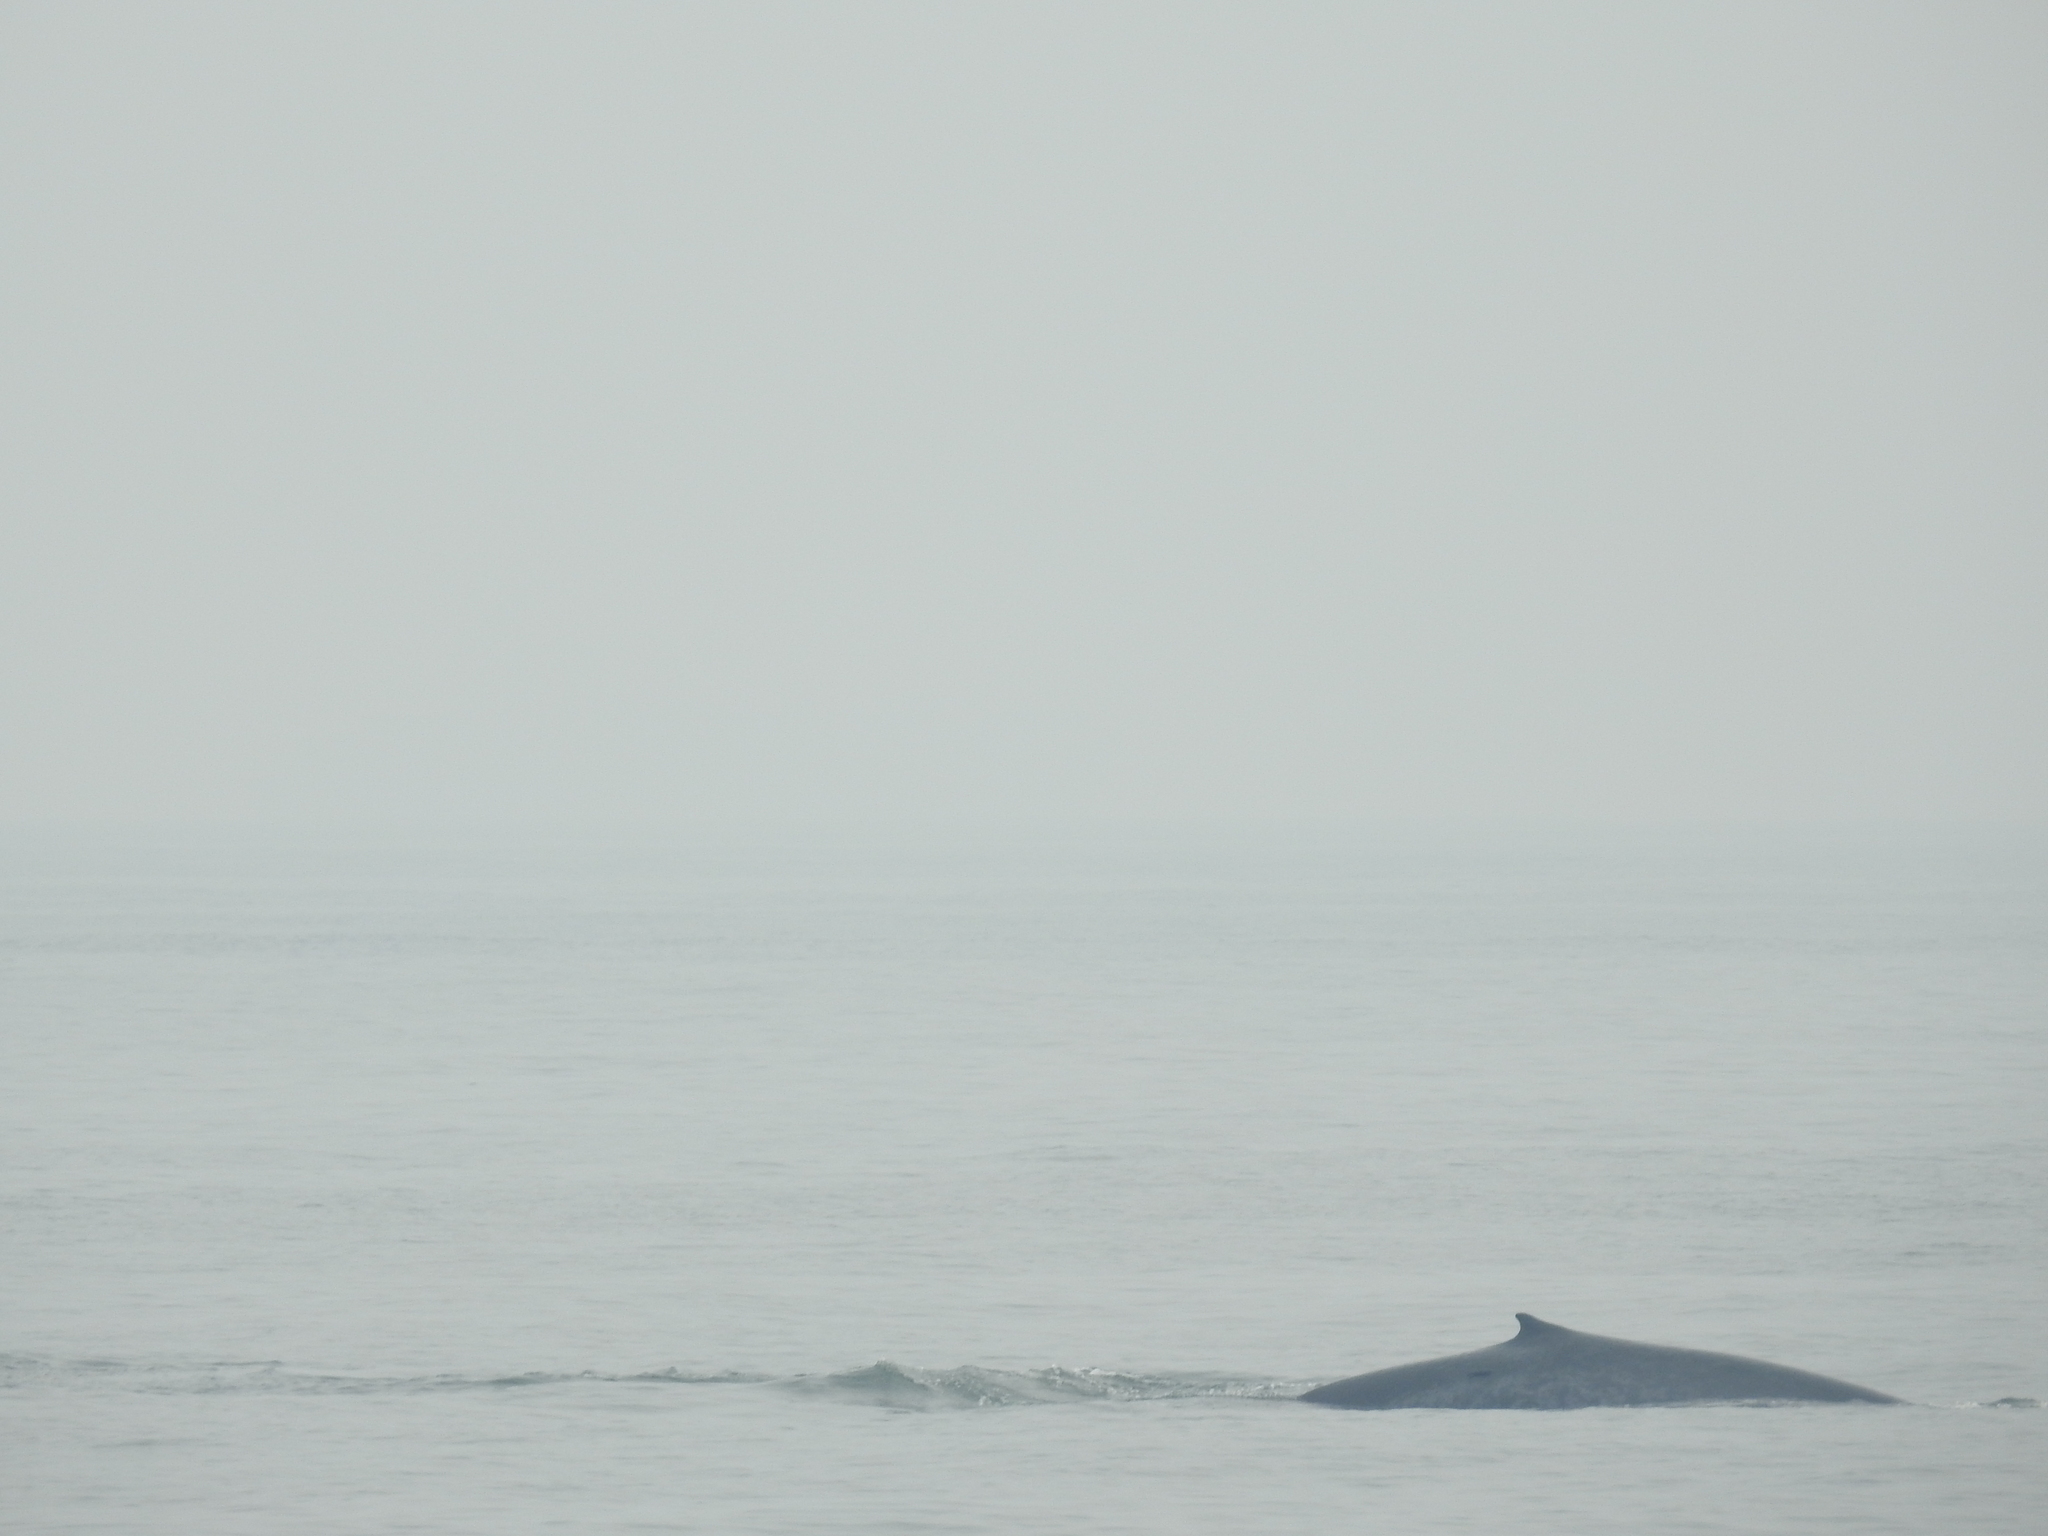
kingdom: Animalia
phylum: Chordata
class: Mammalia
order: Cetacea
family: Balaenopteridae
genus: Balaenoptera
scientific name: Balaenoptera musculus
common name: Blue whale
